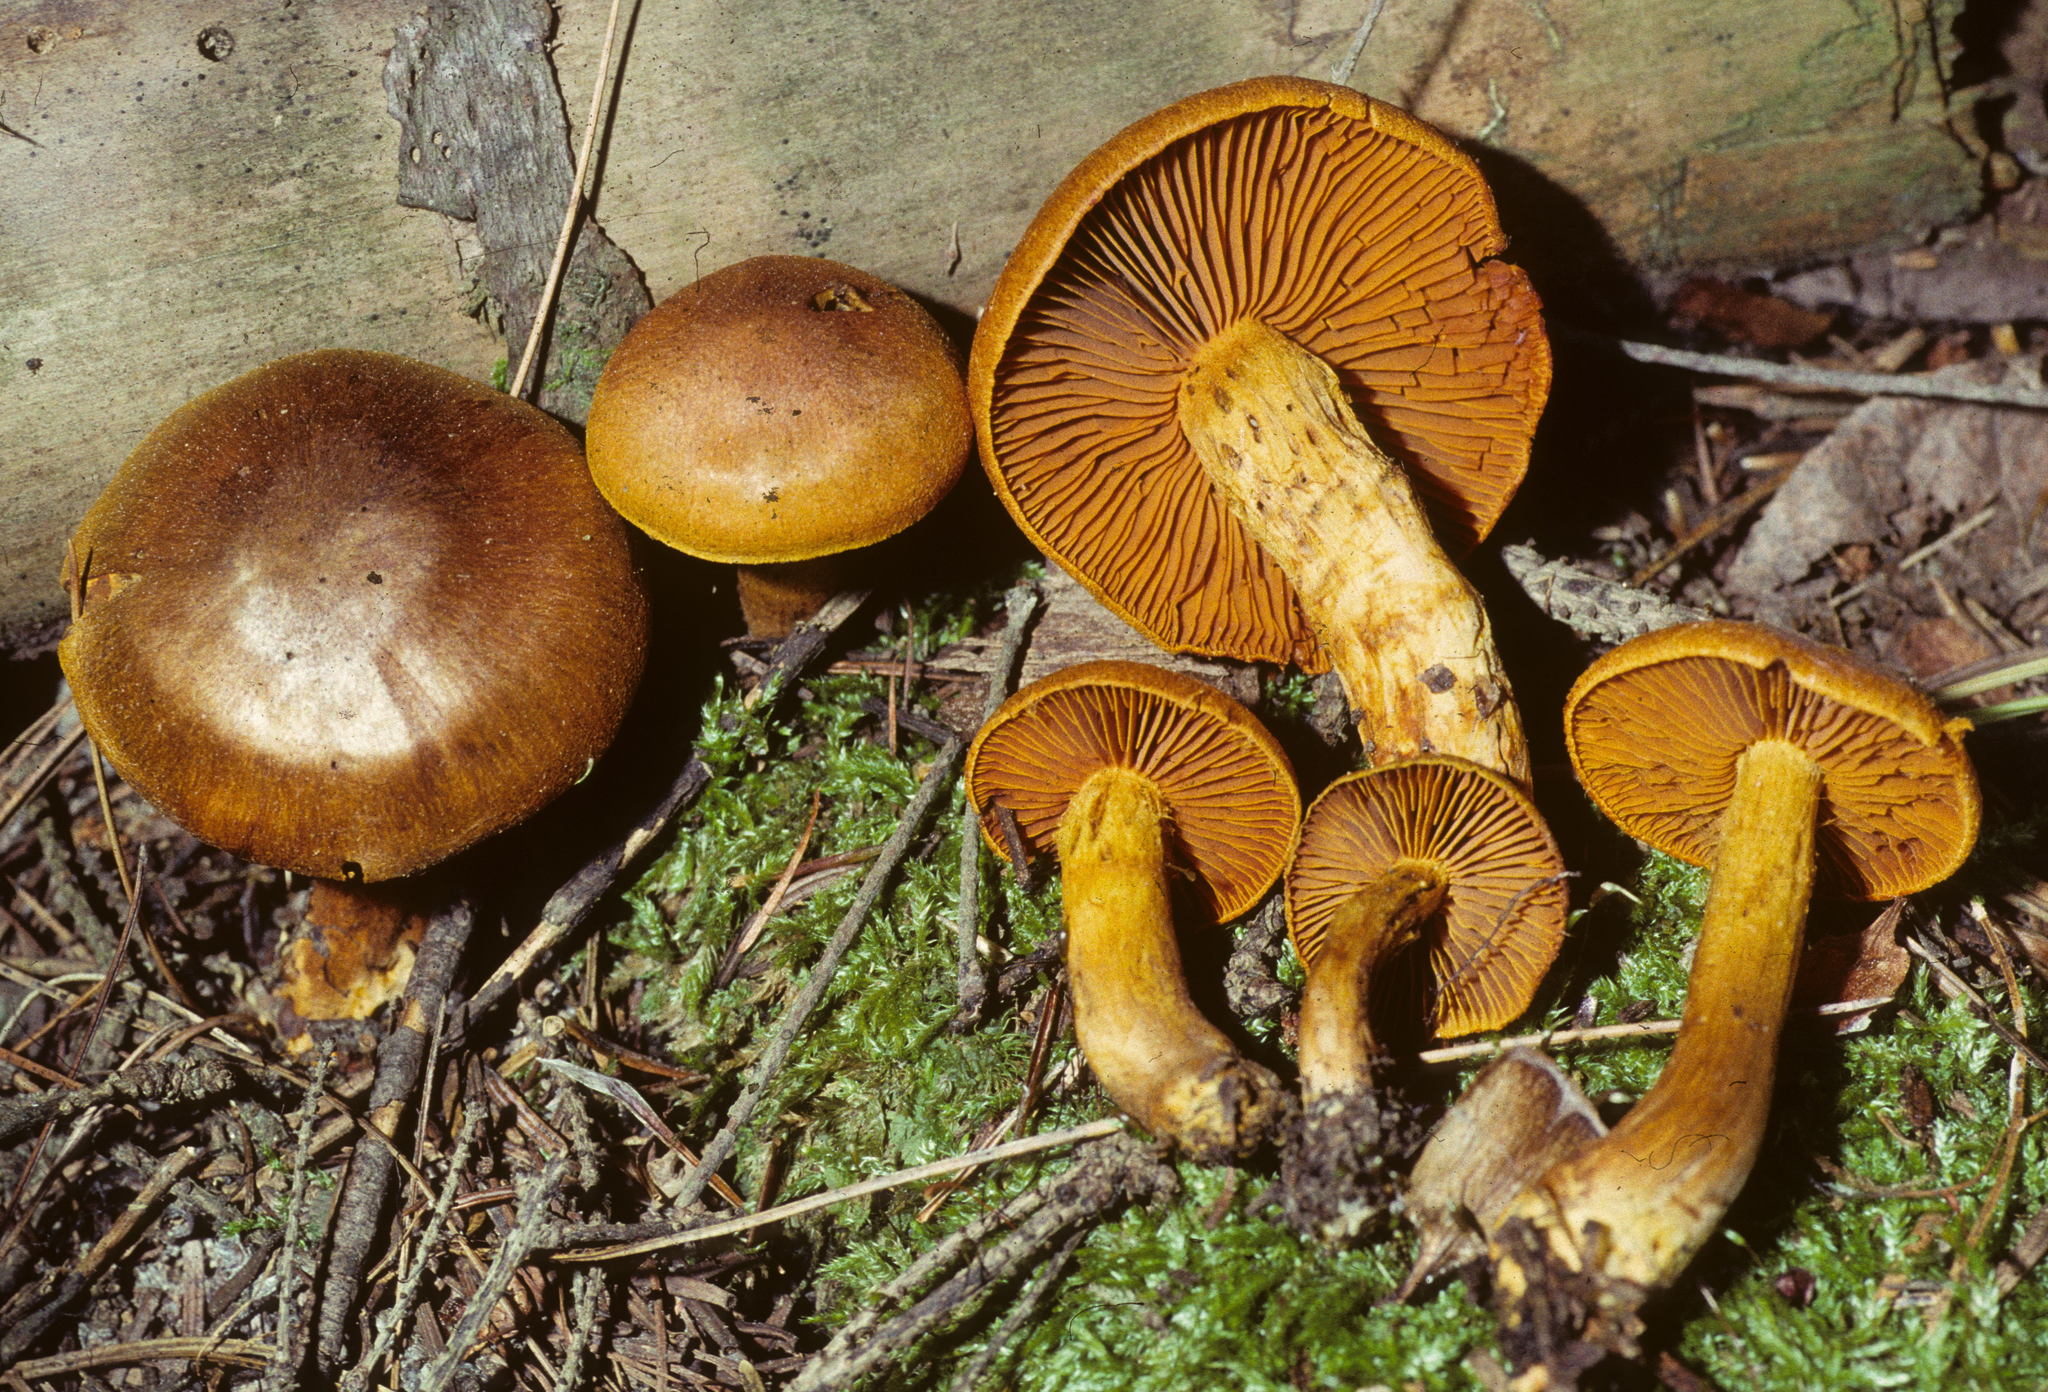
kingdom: Fungi
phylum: Basidiomycota
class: Agaricomycetes
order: Agaricales
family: Cortinariaceae
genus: Cortinarius
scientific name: Cortinarius malicorius
